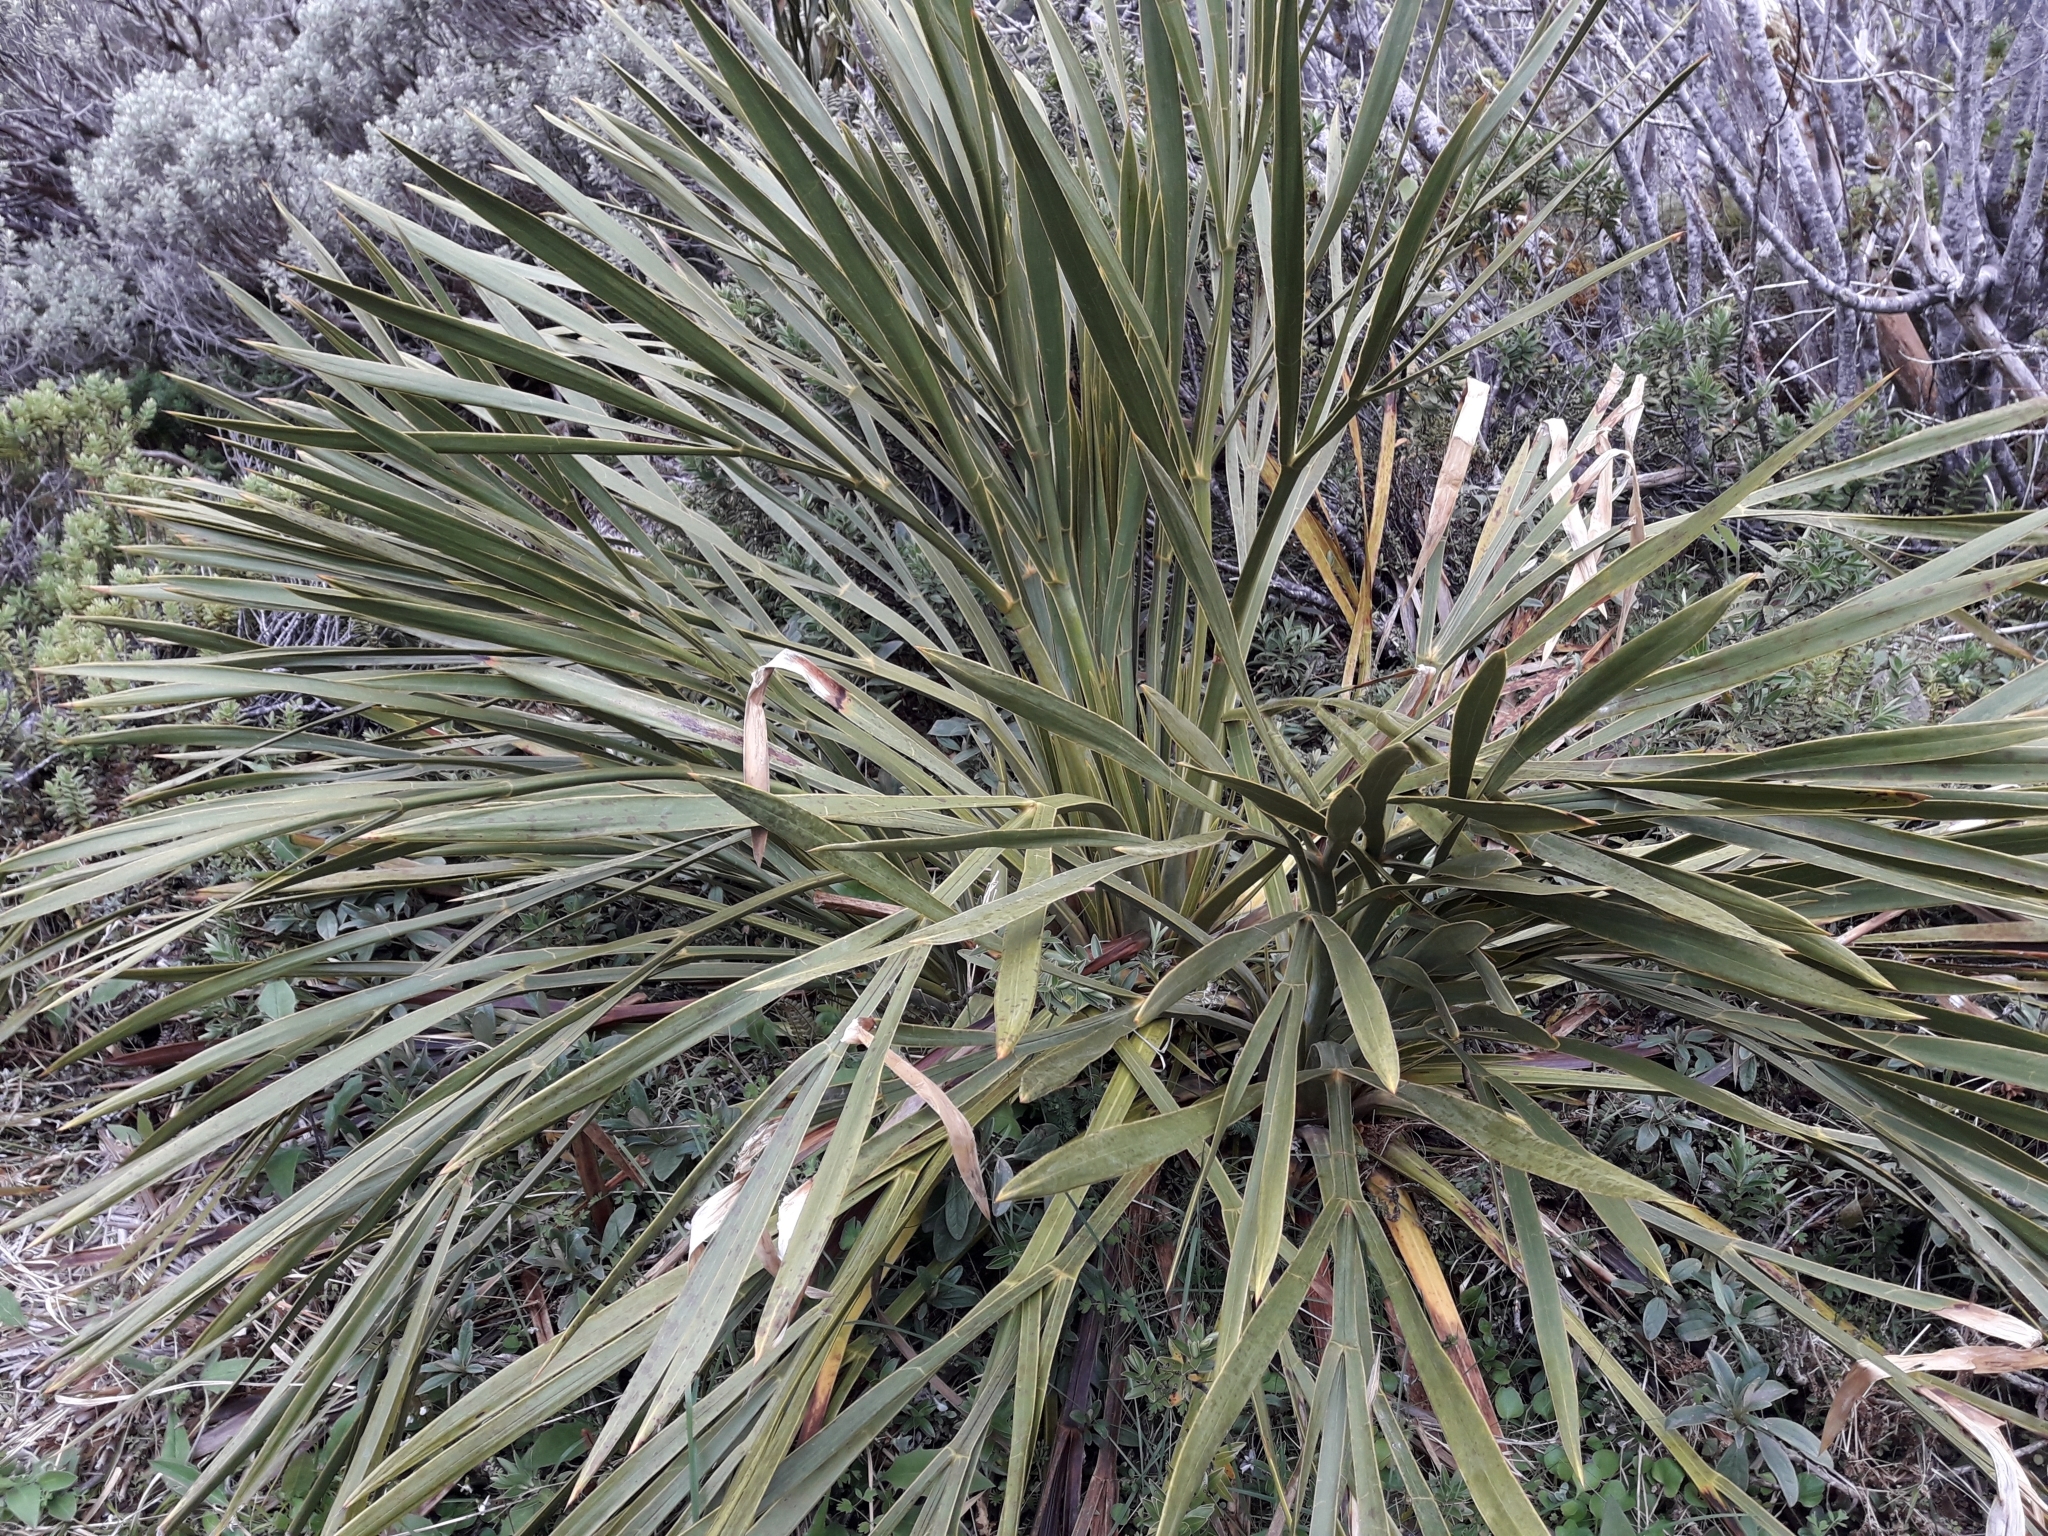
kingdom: Plantae
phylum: Tracheophyta
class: Magnoliopsida
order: Apiales
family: Apiaceae
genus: Aciphylla
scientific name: Aciphylla horrida
